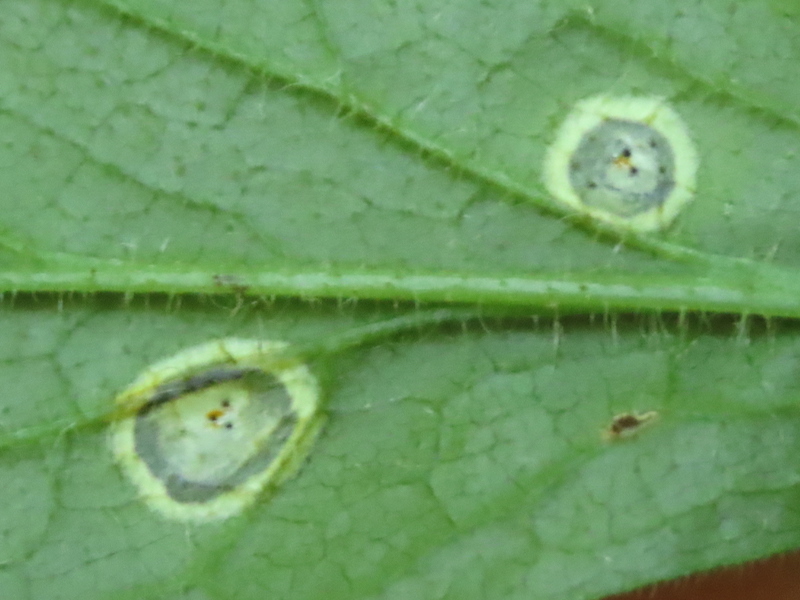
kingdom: Animalia
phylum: Arthropoda
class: Insecta
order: Diptera
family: Cecidomyiidae
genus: Asteromyia
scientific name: Asteromyia carbonifera
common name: Carbonifera goldenrod gall midge
